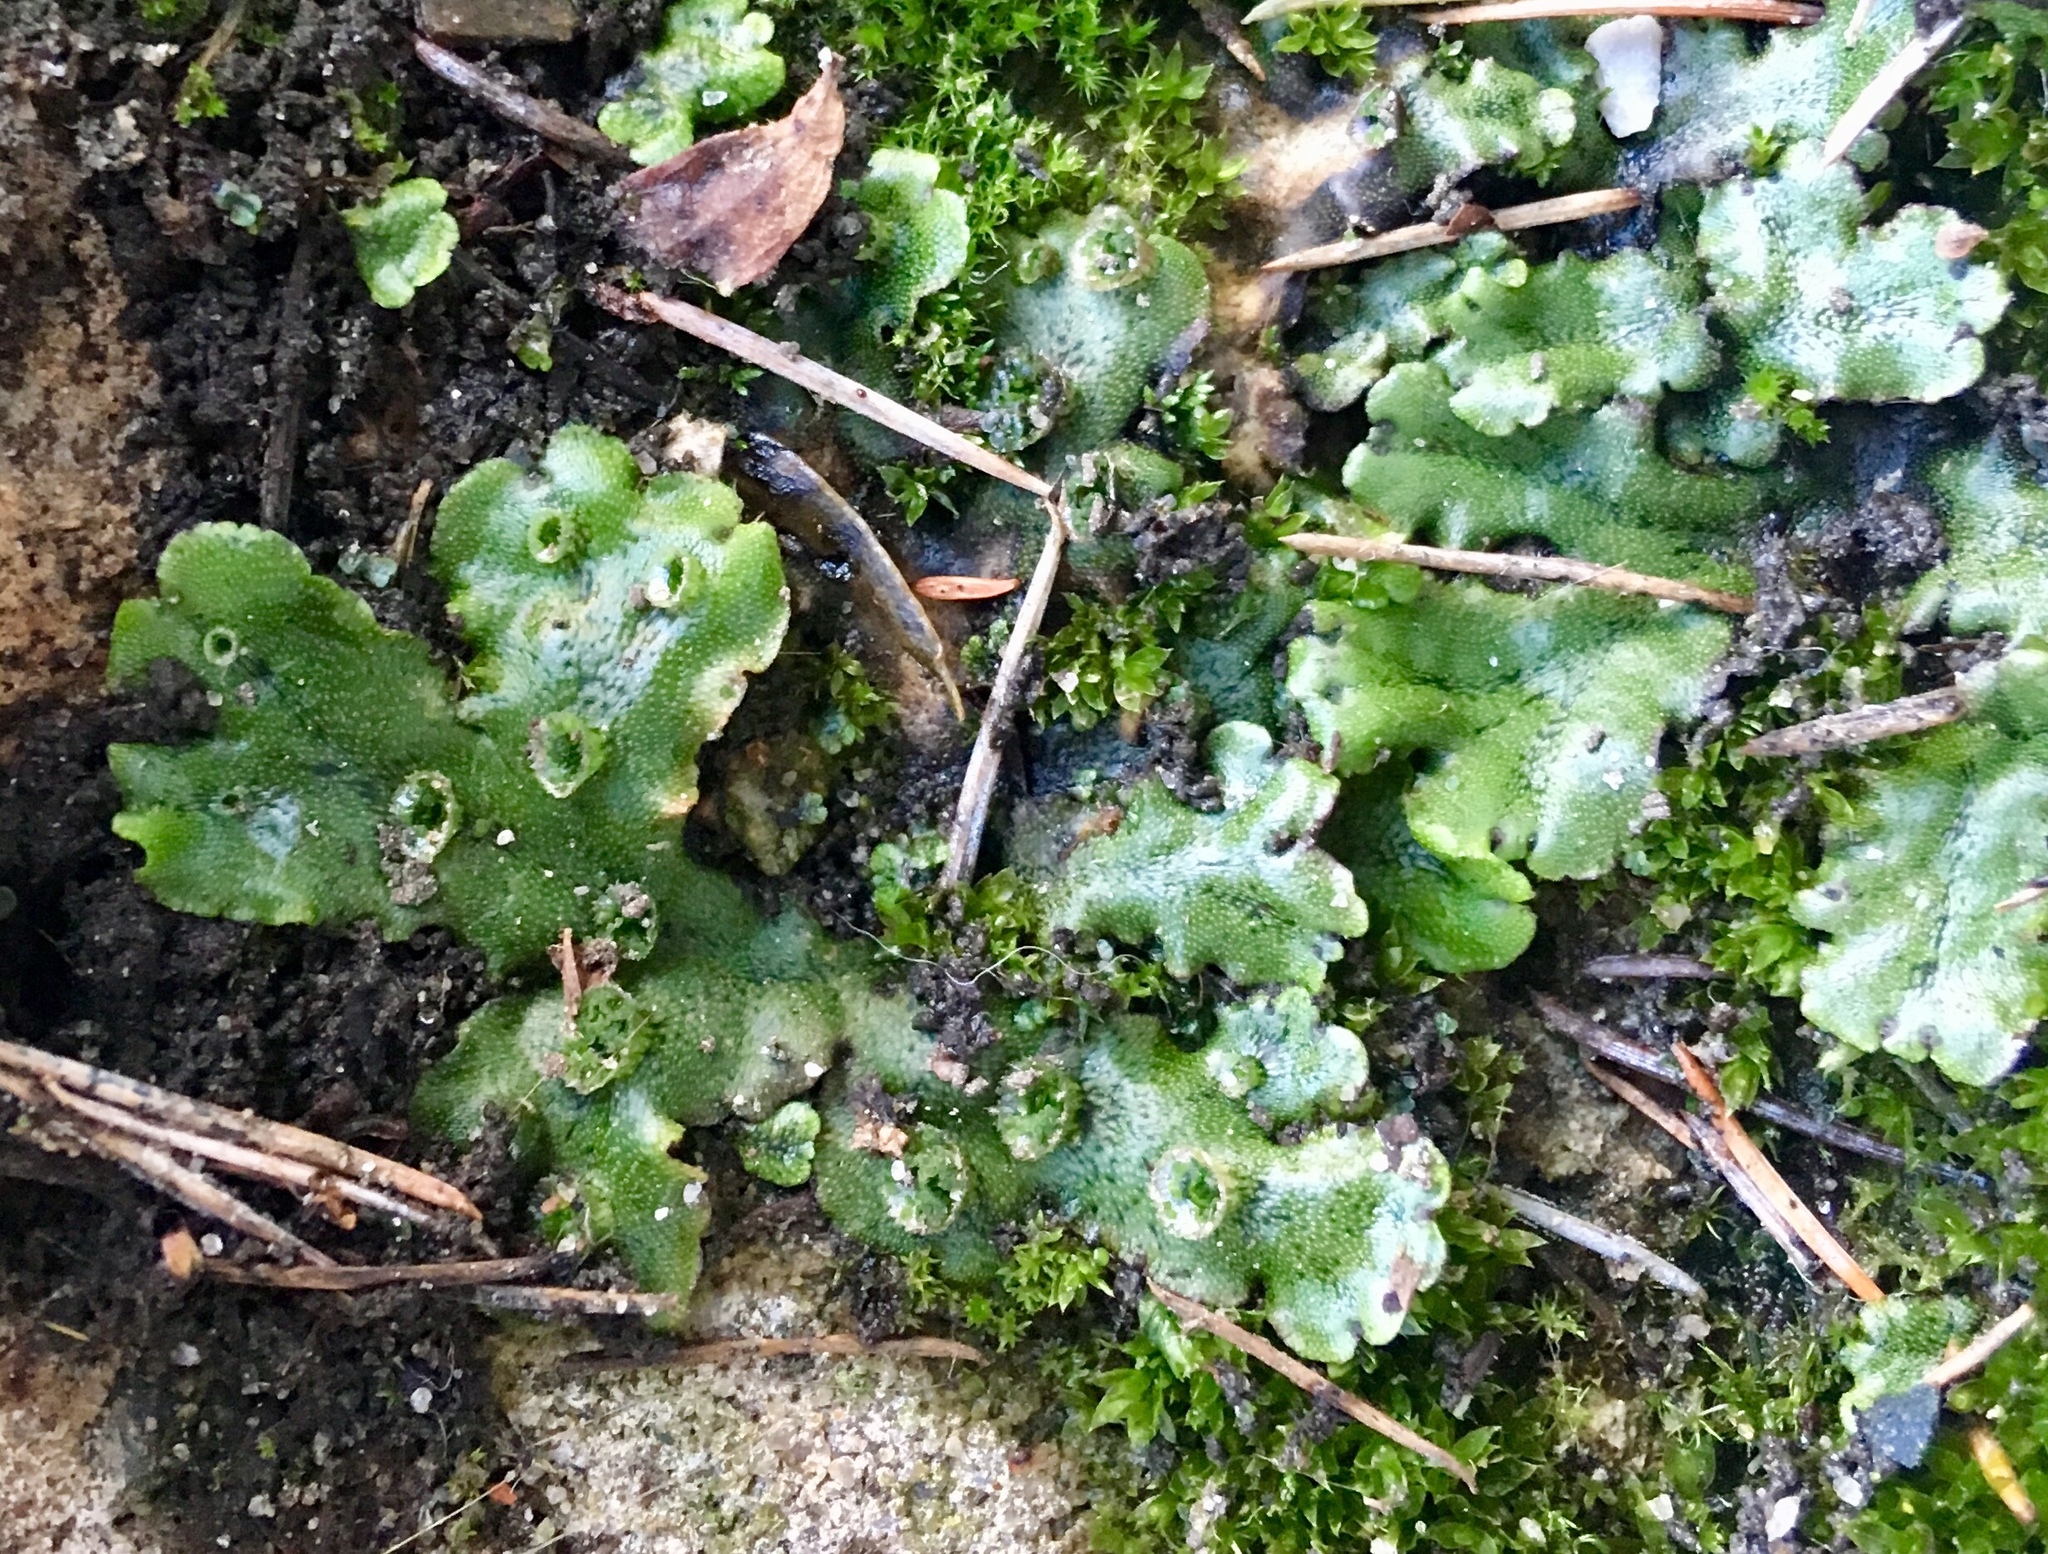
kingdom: Plantae
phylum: Marchantiophyta
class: Marchantiopsida
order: Marchantiales
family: Marchantiaceae
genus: Marchantia
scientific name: Marchantia polymorpha
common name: Common liverwort
